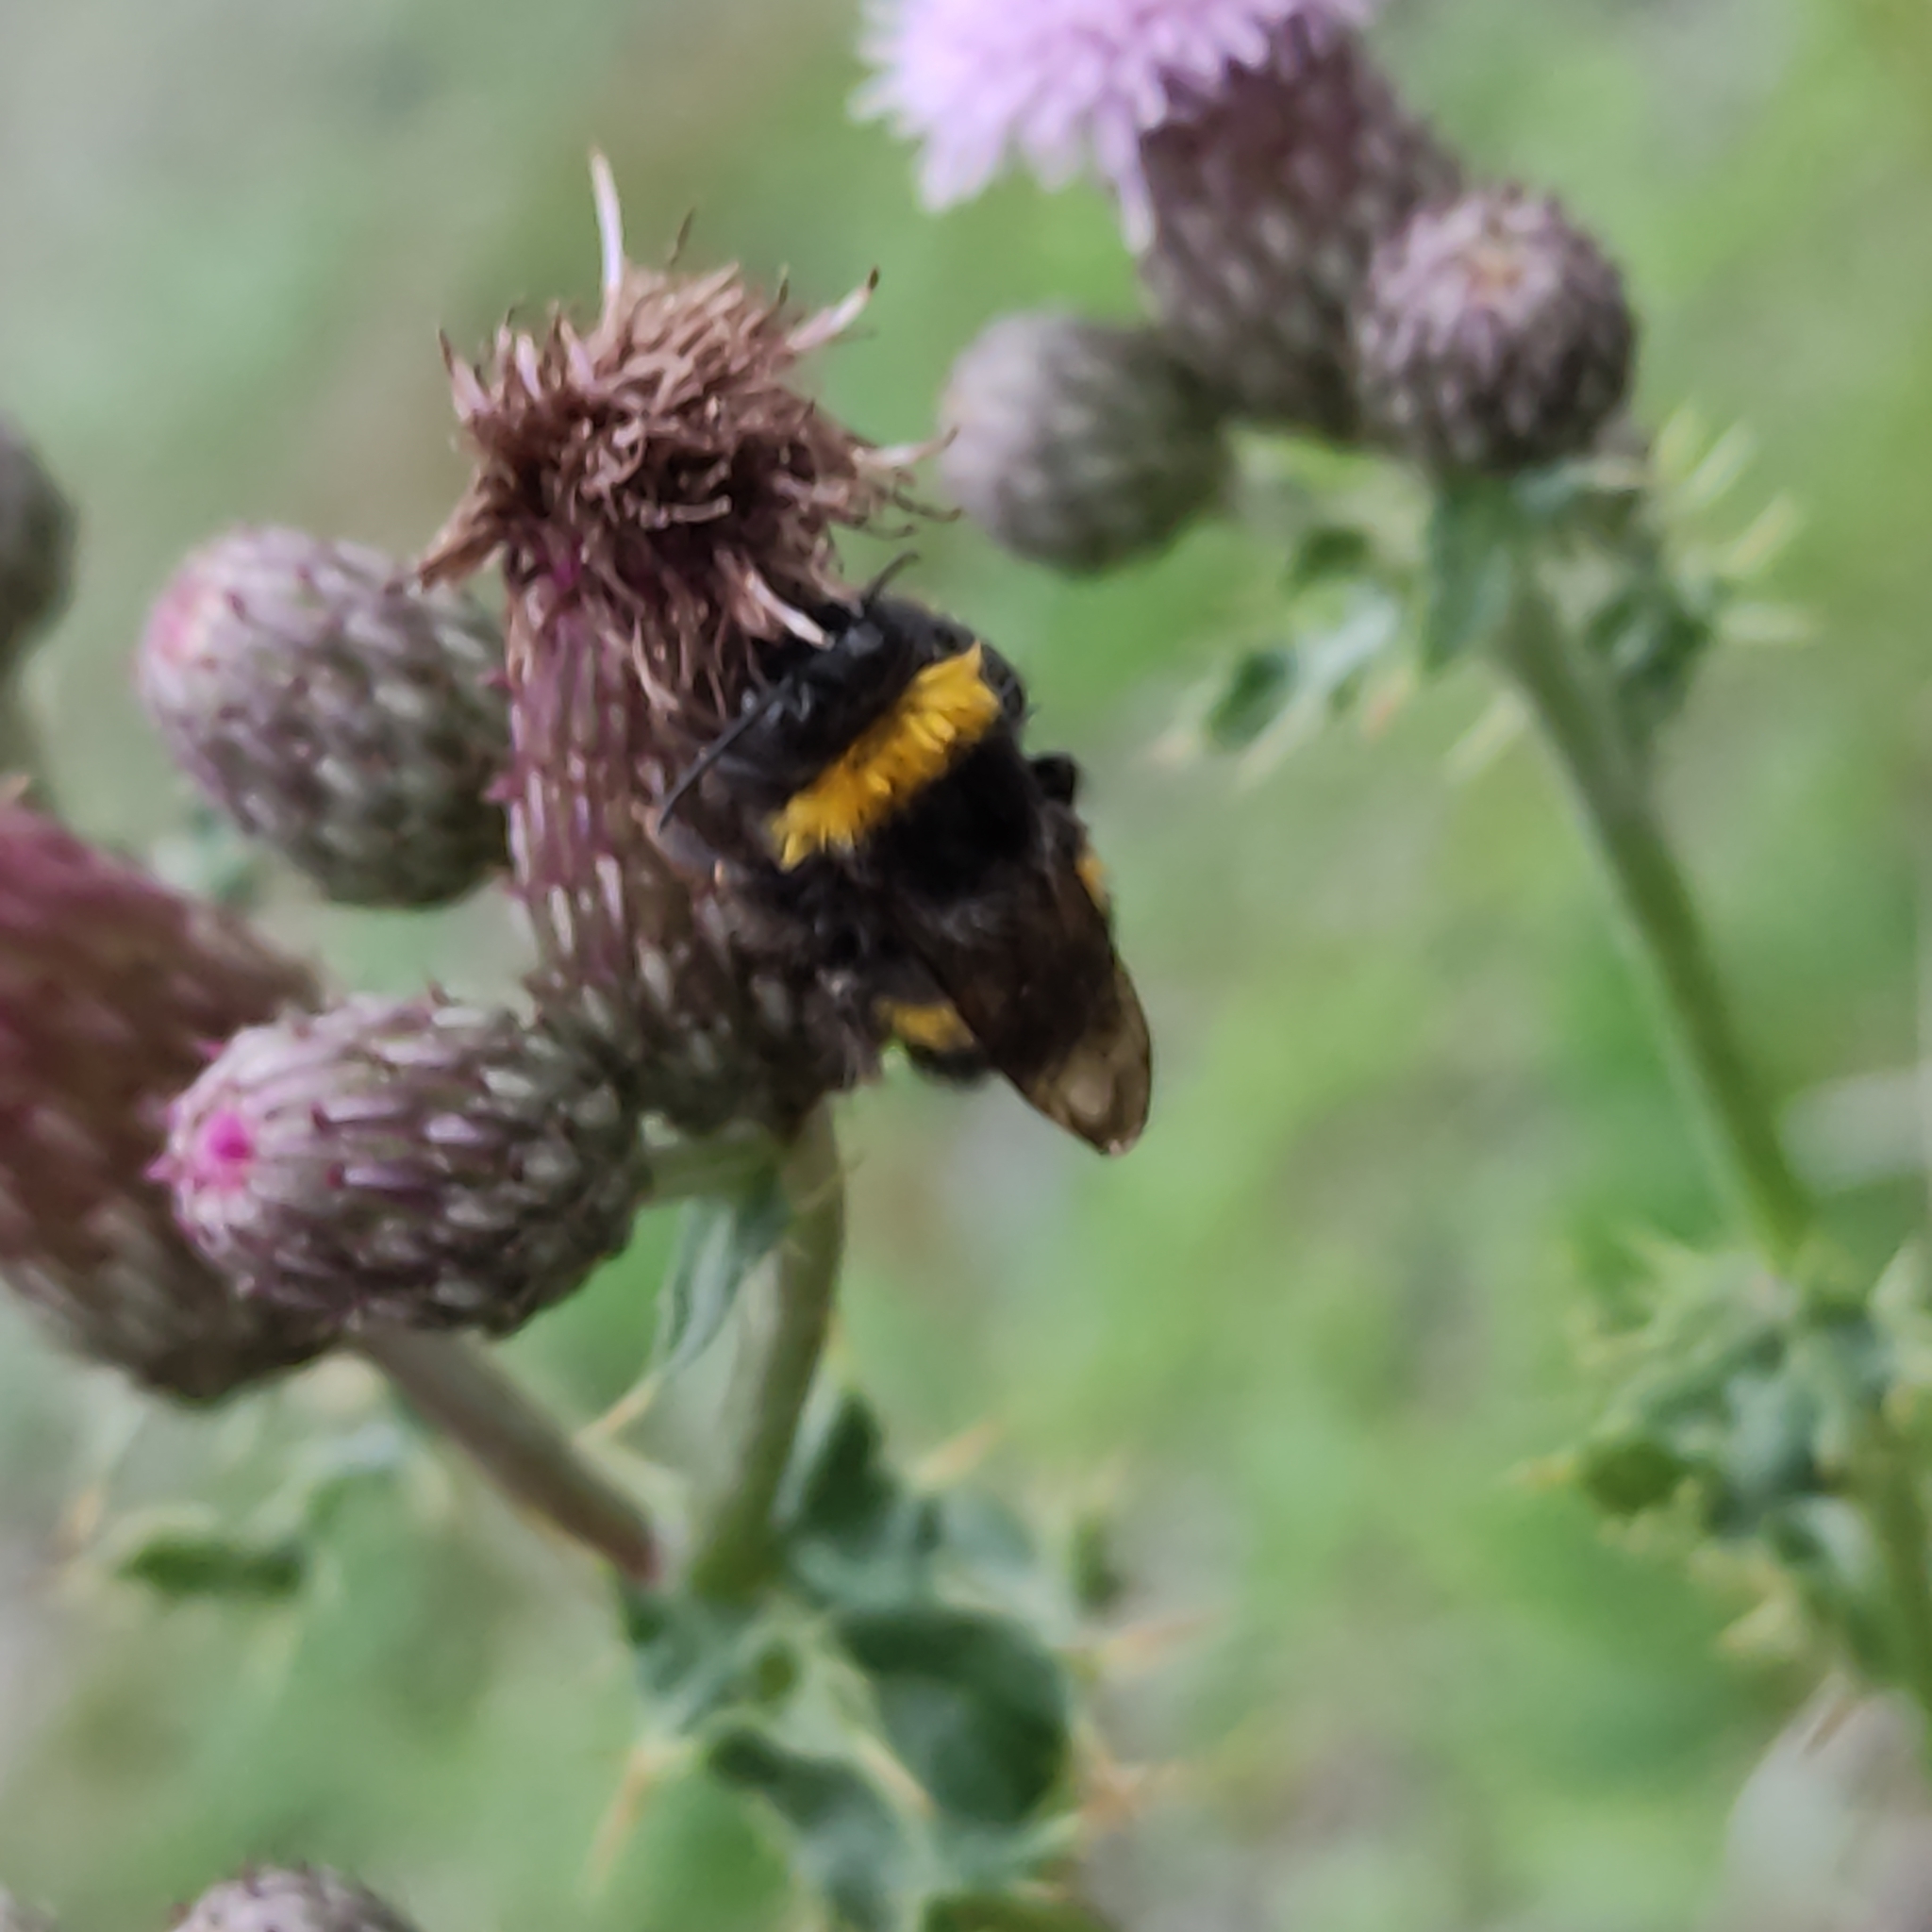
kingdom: Animalia
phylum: Arthropoda
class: Insecta
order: Hymenoptera
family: Apidae
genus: Bombus
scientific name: Bombus terrestris
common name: Buff-tailed bumblebee
